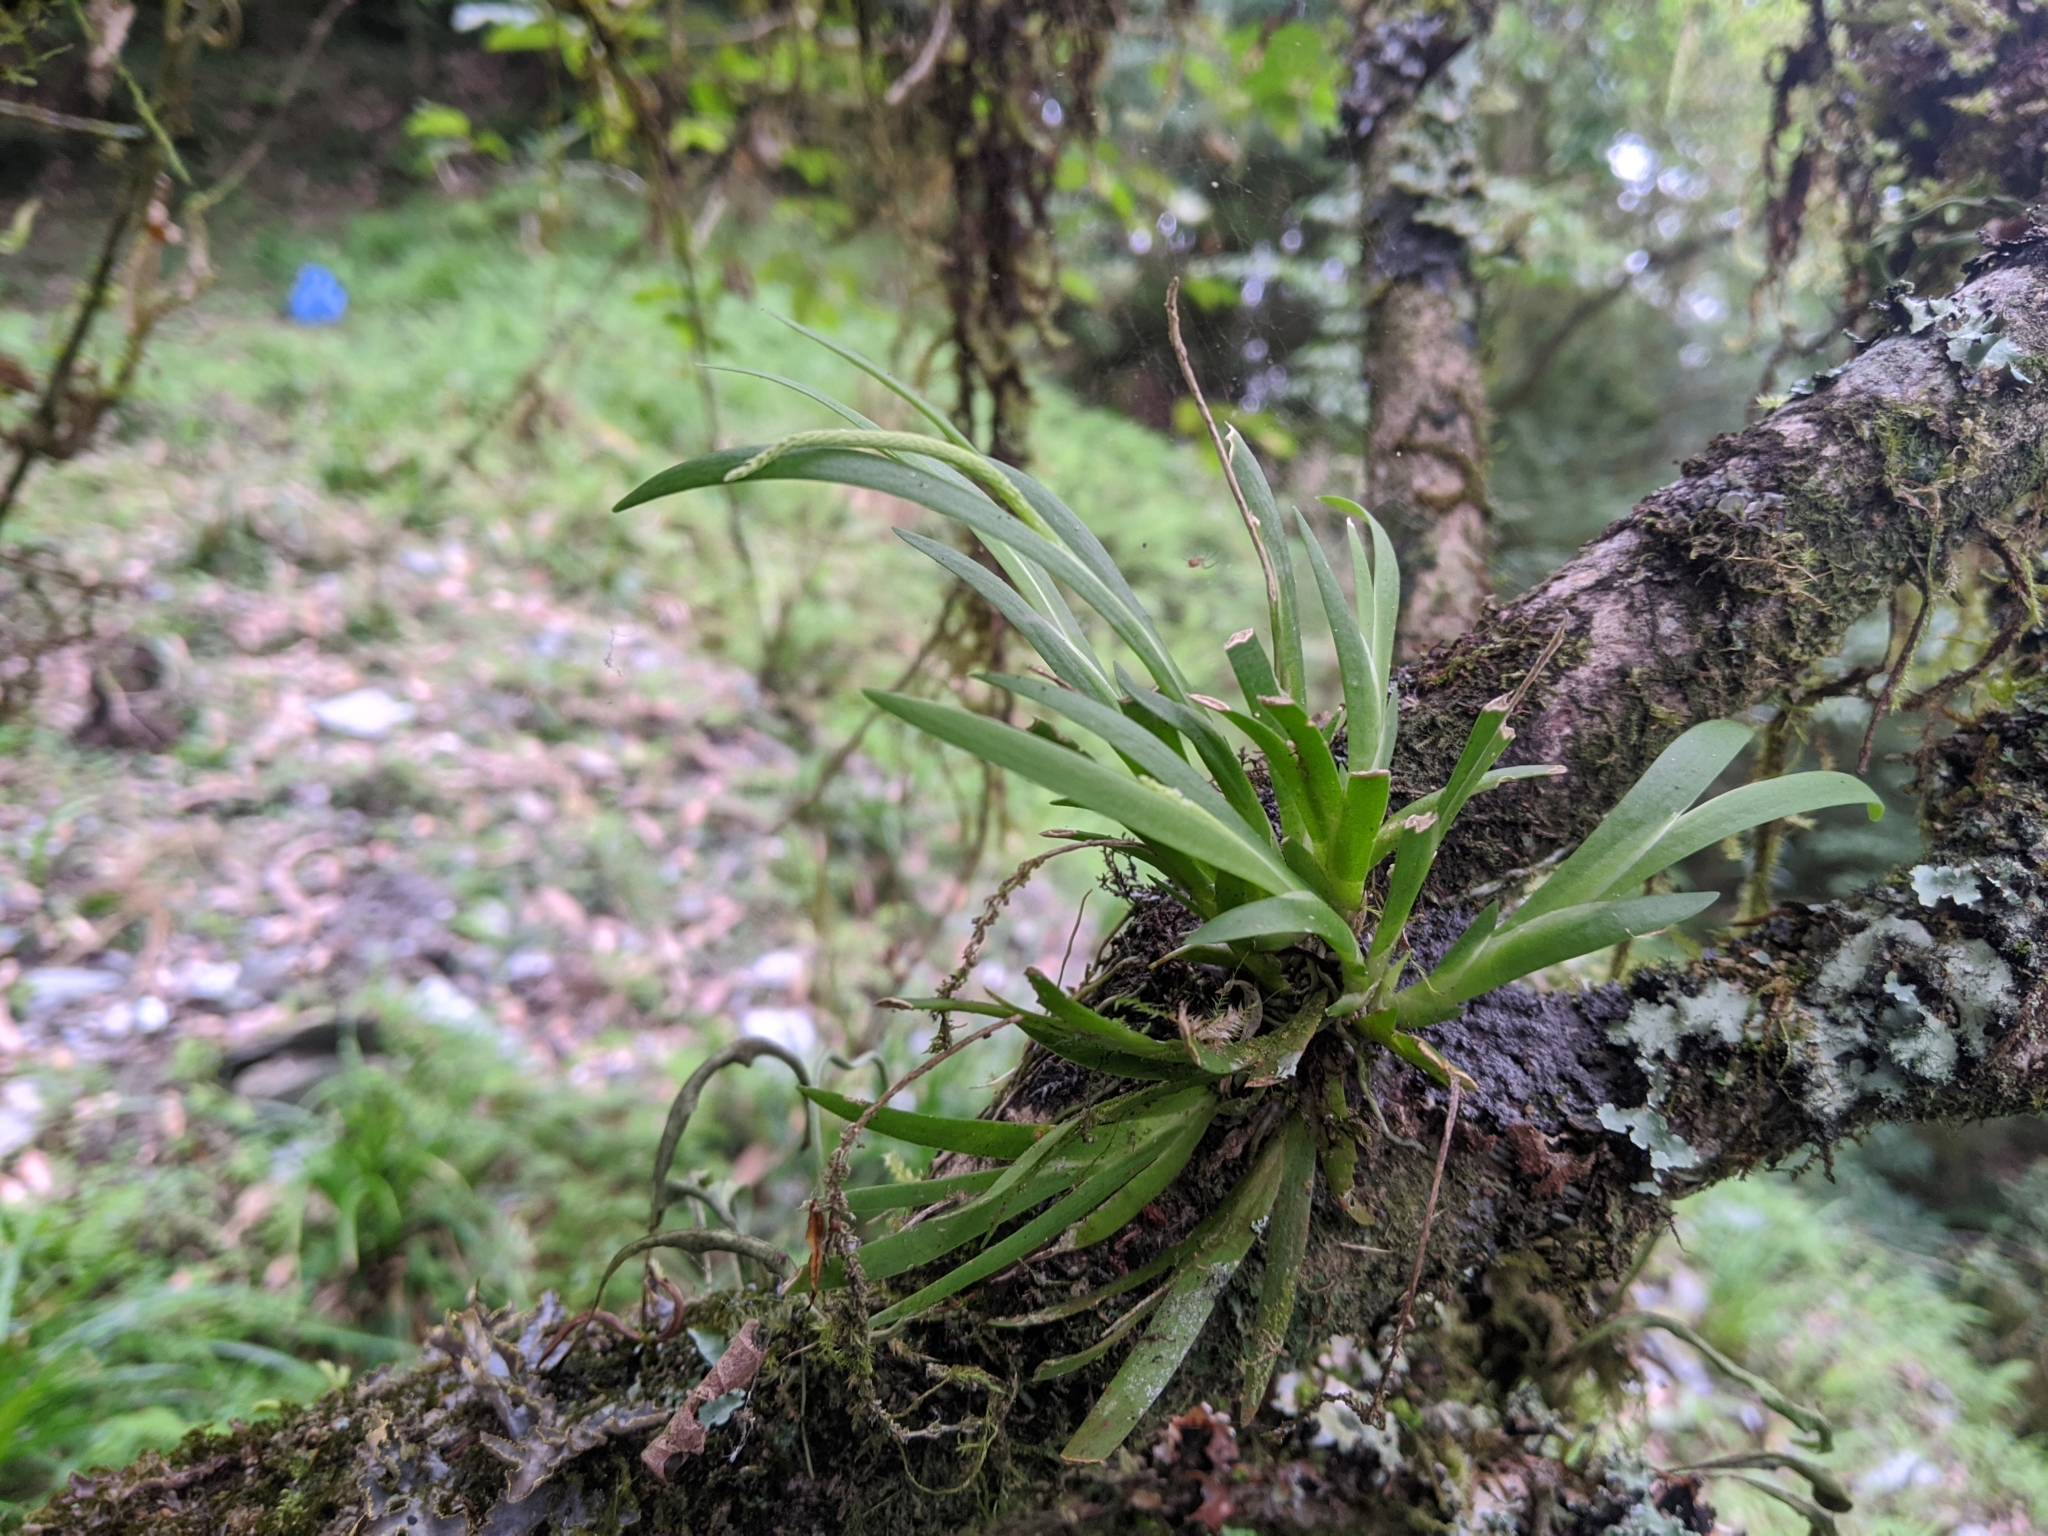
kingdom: Plantae
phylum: Tracheophyta
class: Liliopsida
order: Asparagales
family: Orchidaceae
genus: Oberonia
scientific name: Oberonia caulescens
